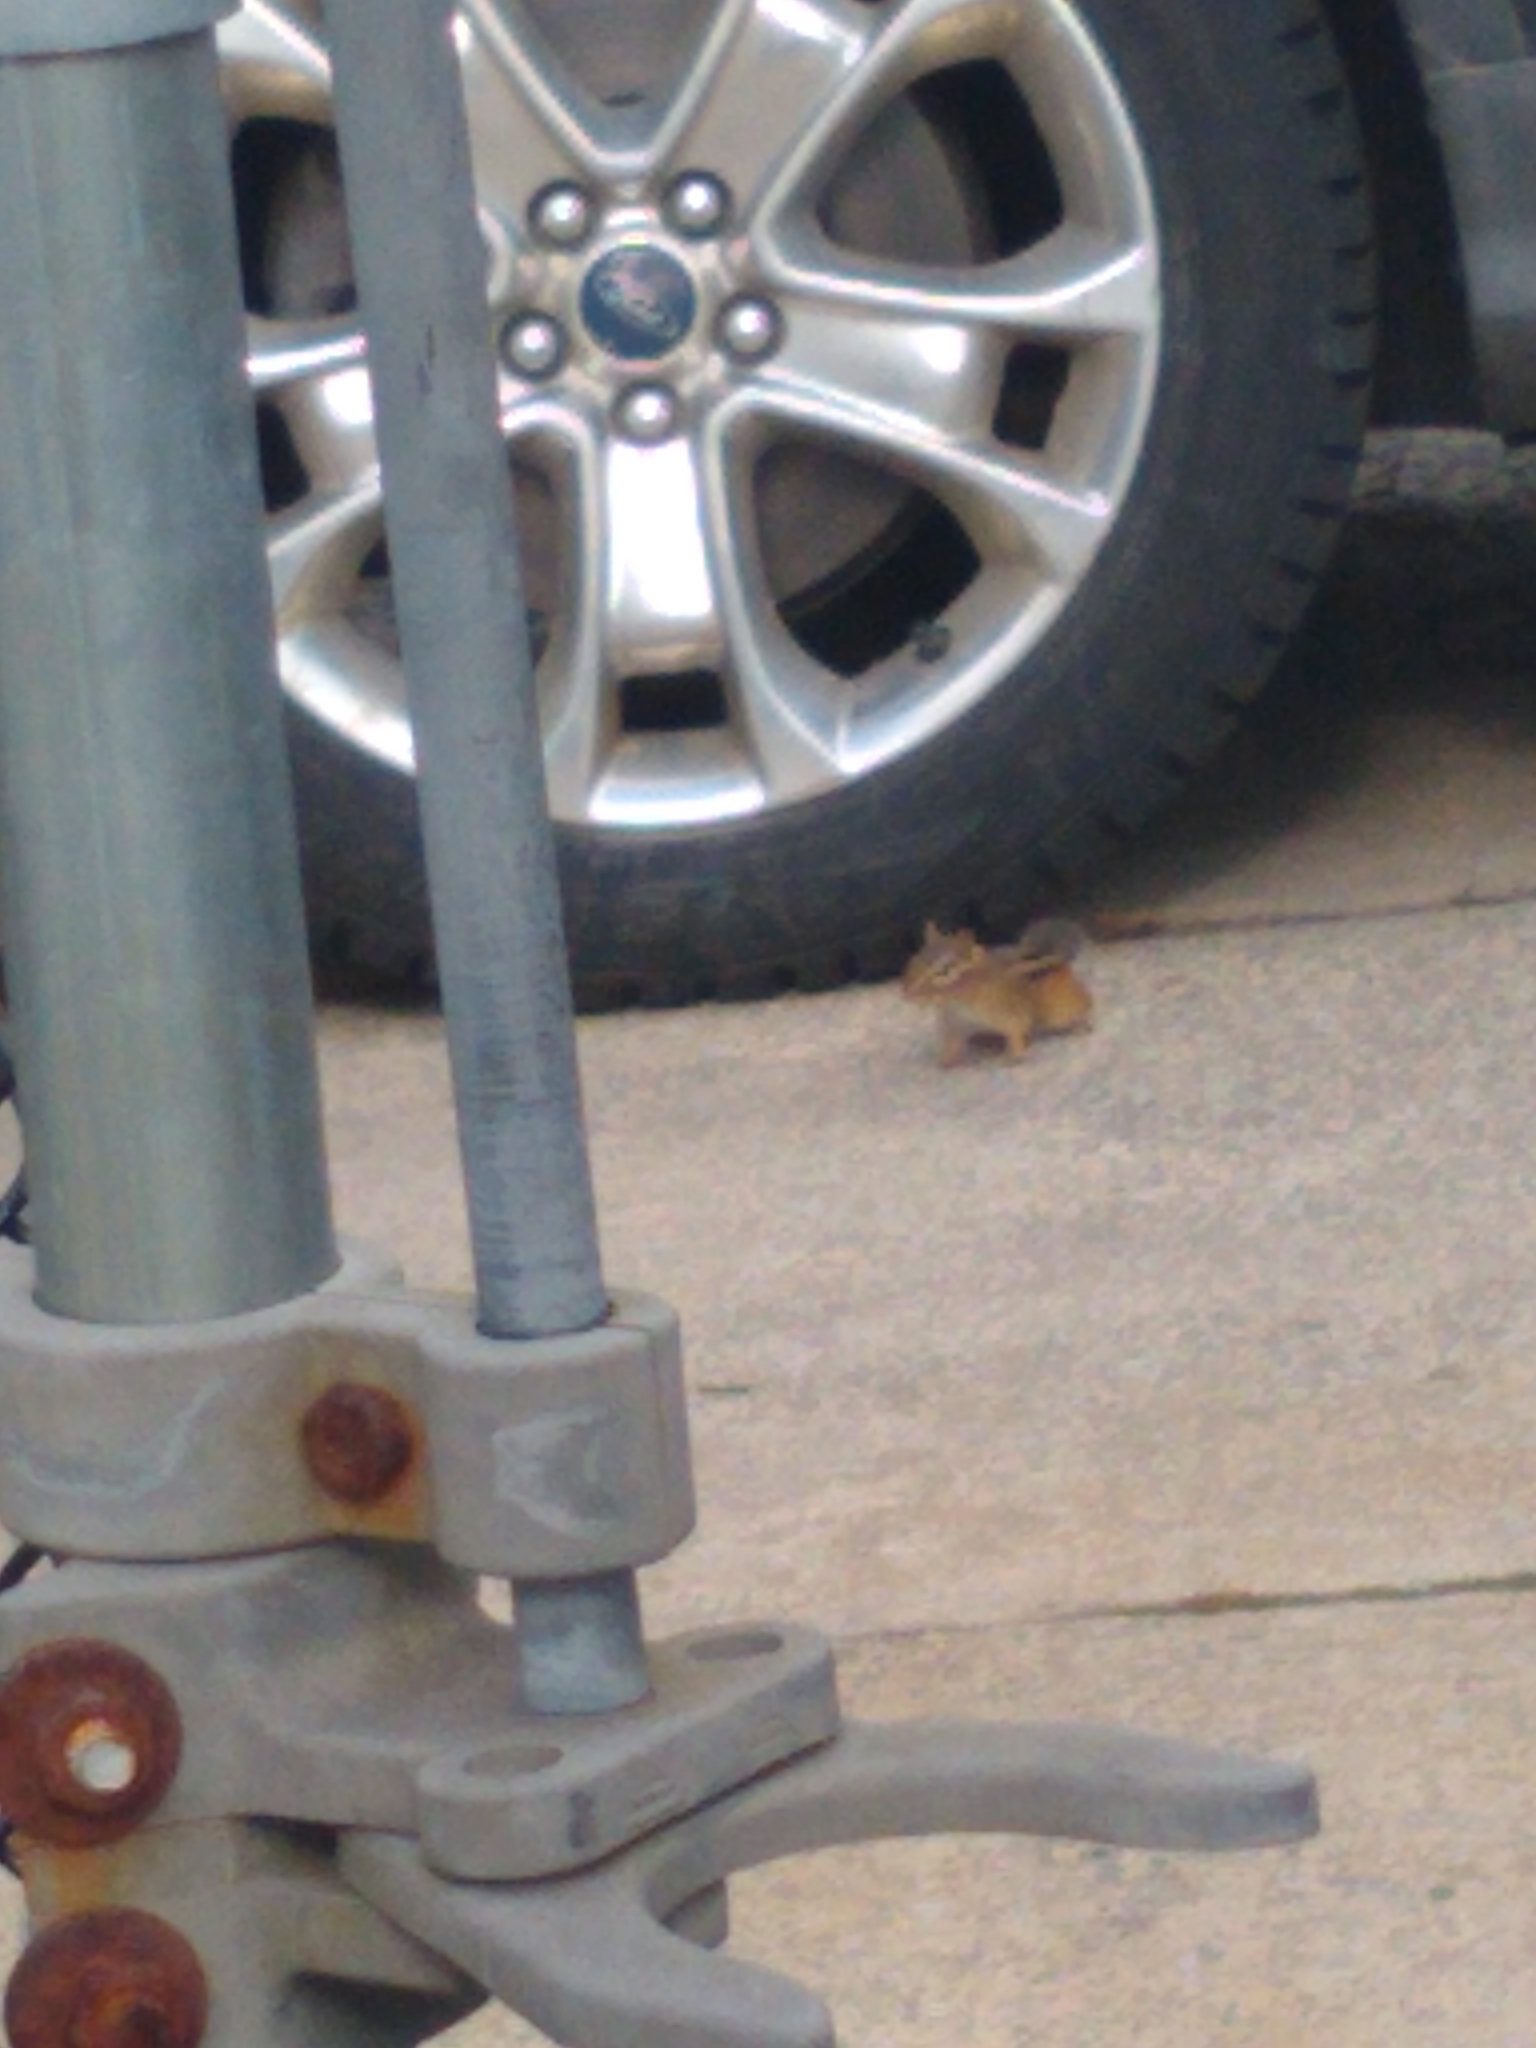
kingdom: Animalia
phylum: Chordata
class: Mammalia
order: Rodentia
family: Sciuridae
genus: Tamias
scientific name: Tamias striatus
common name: Eastern chipmunk
